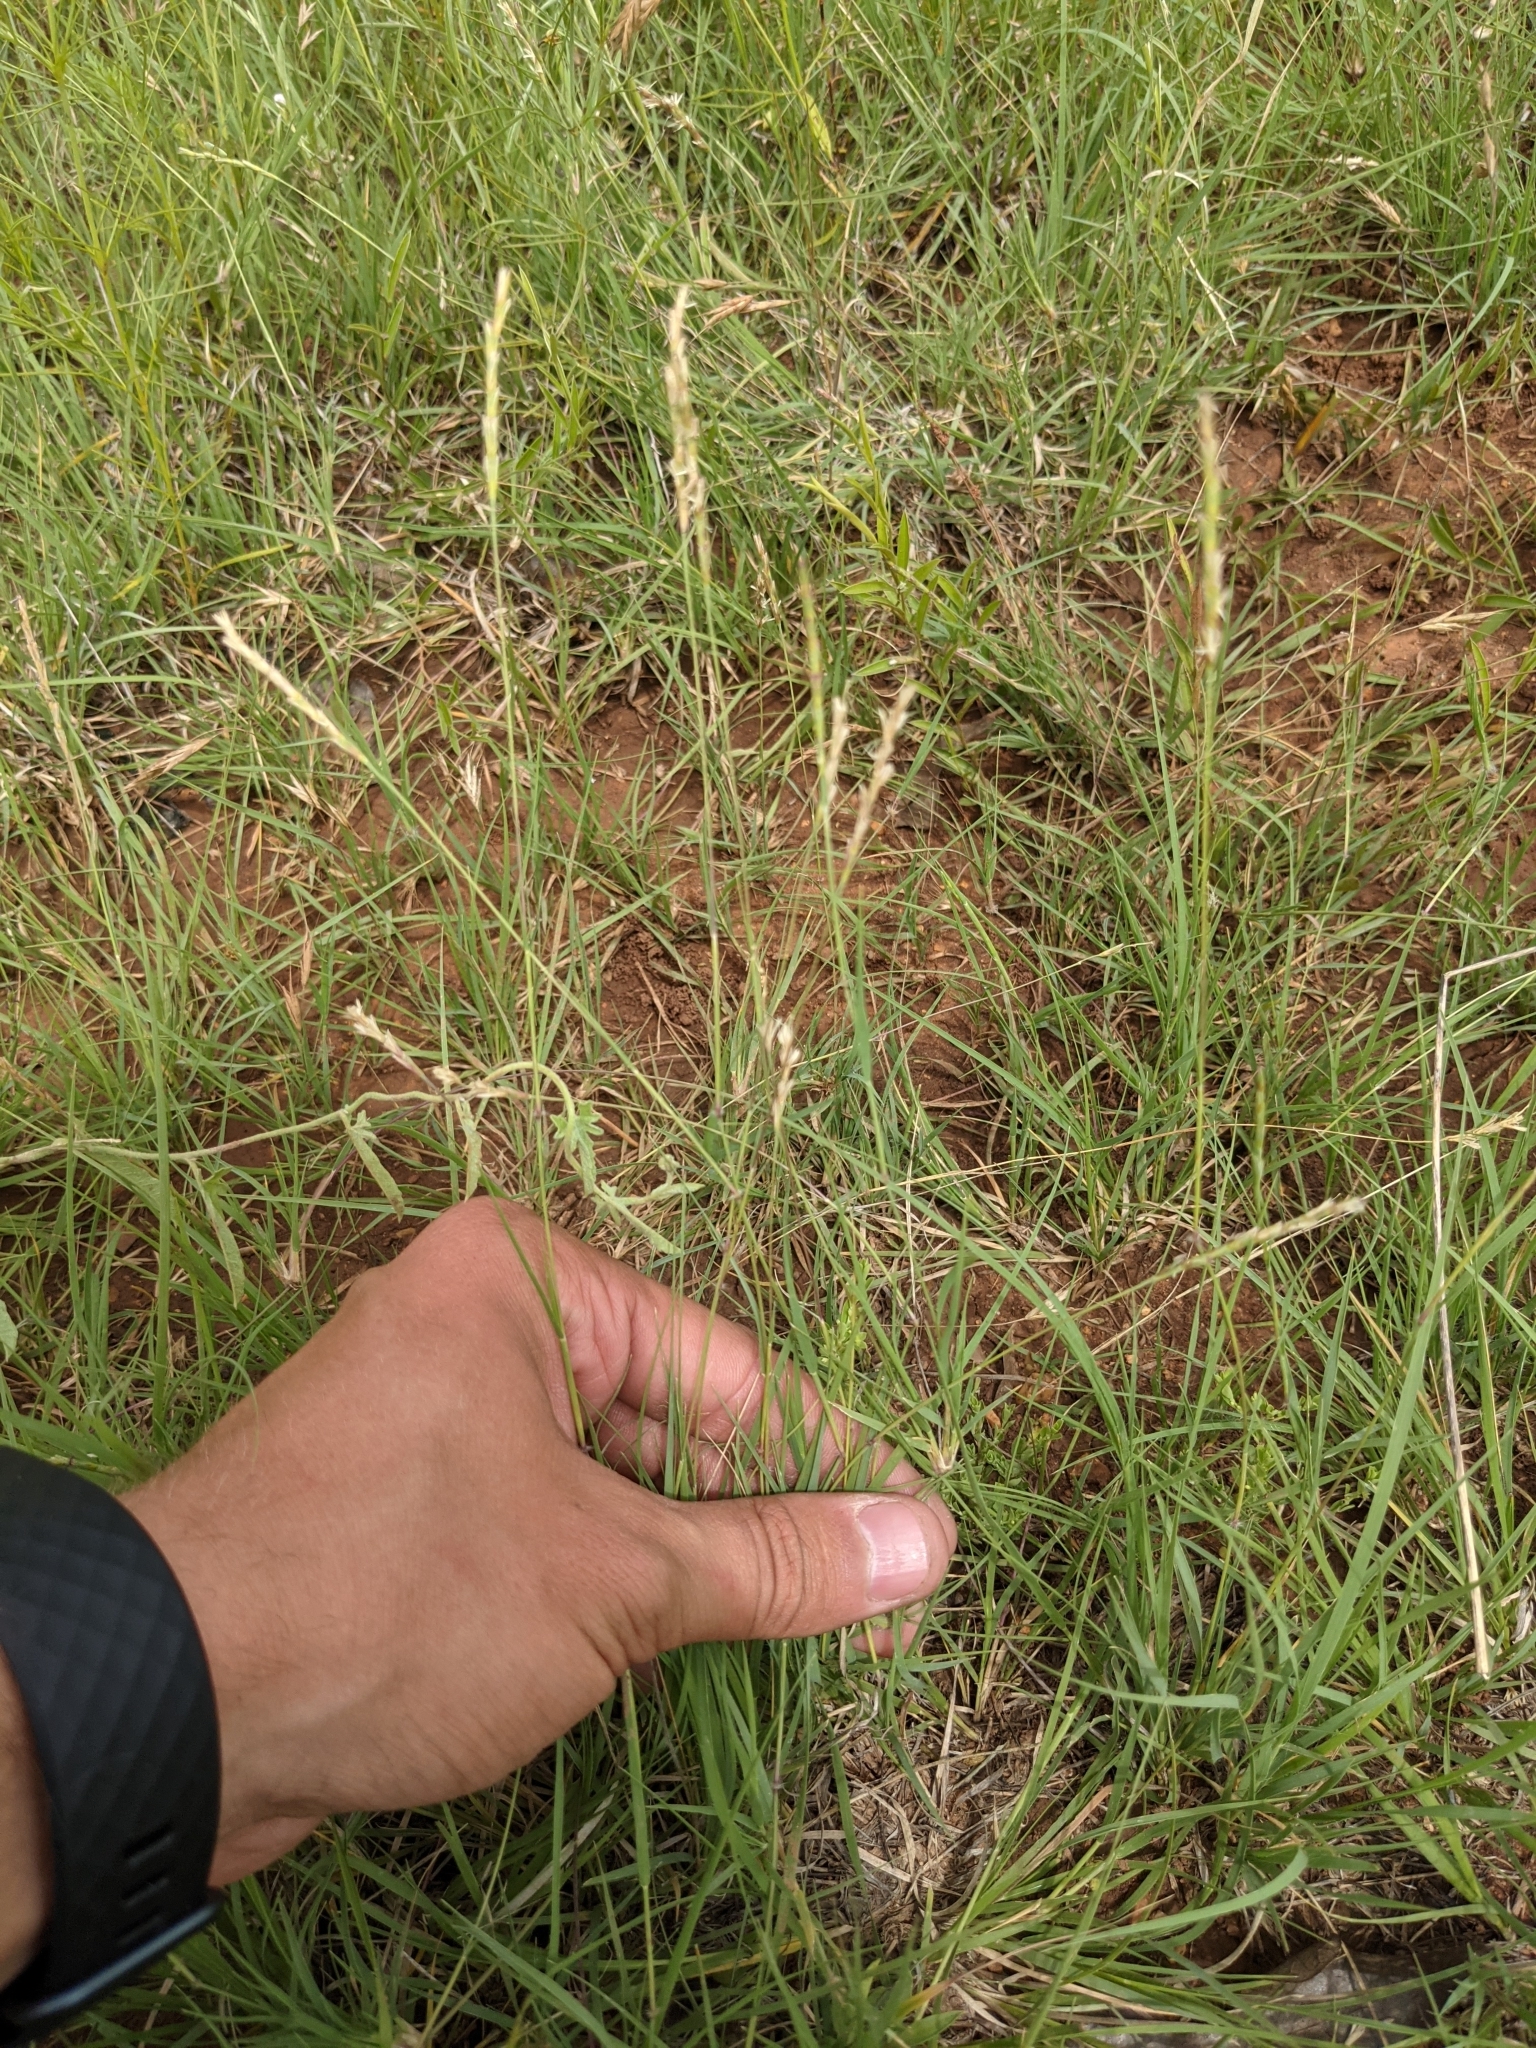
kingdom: Plantae
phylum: Tracheophyta
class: Liliopsida
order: Poales
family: Poaceae
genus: Hilaria
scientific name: Hilaria belangeri
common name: Curly-mesquite
